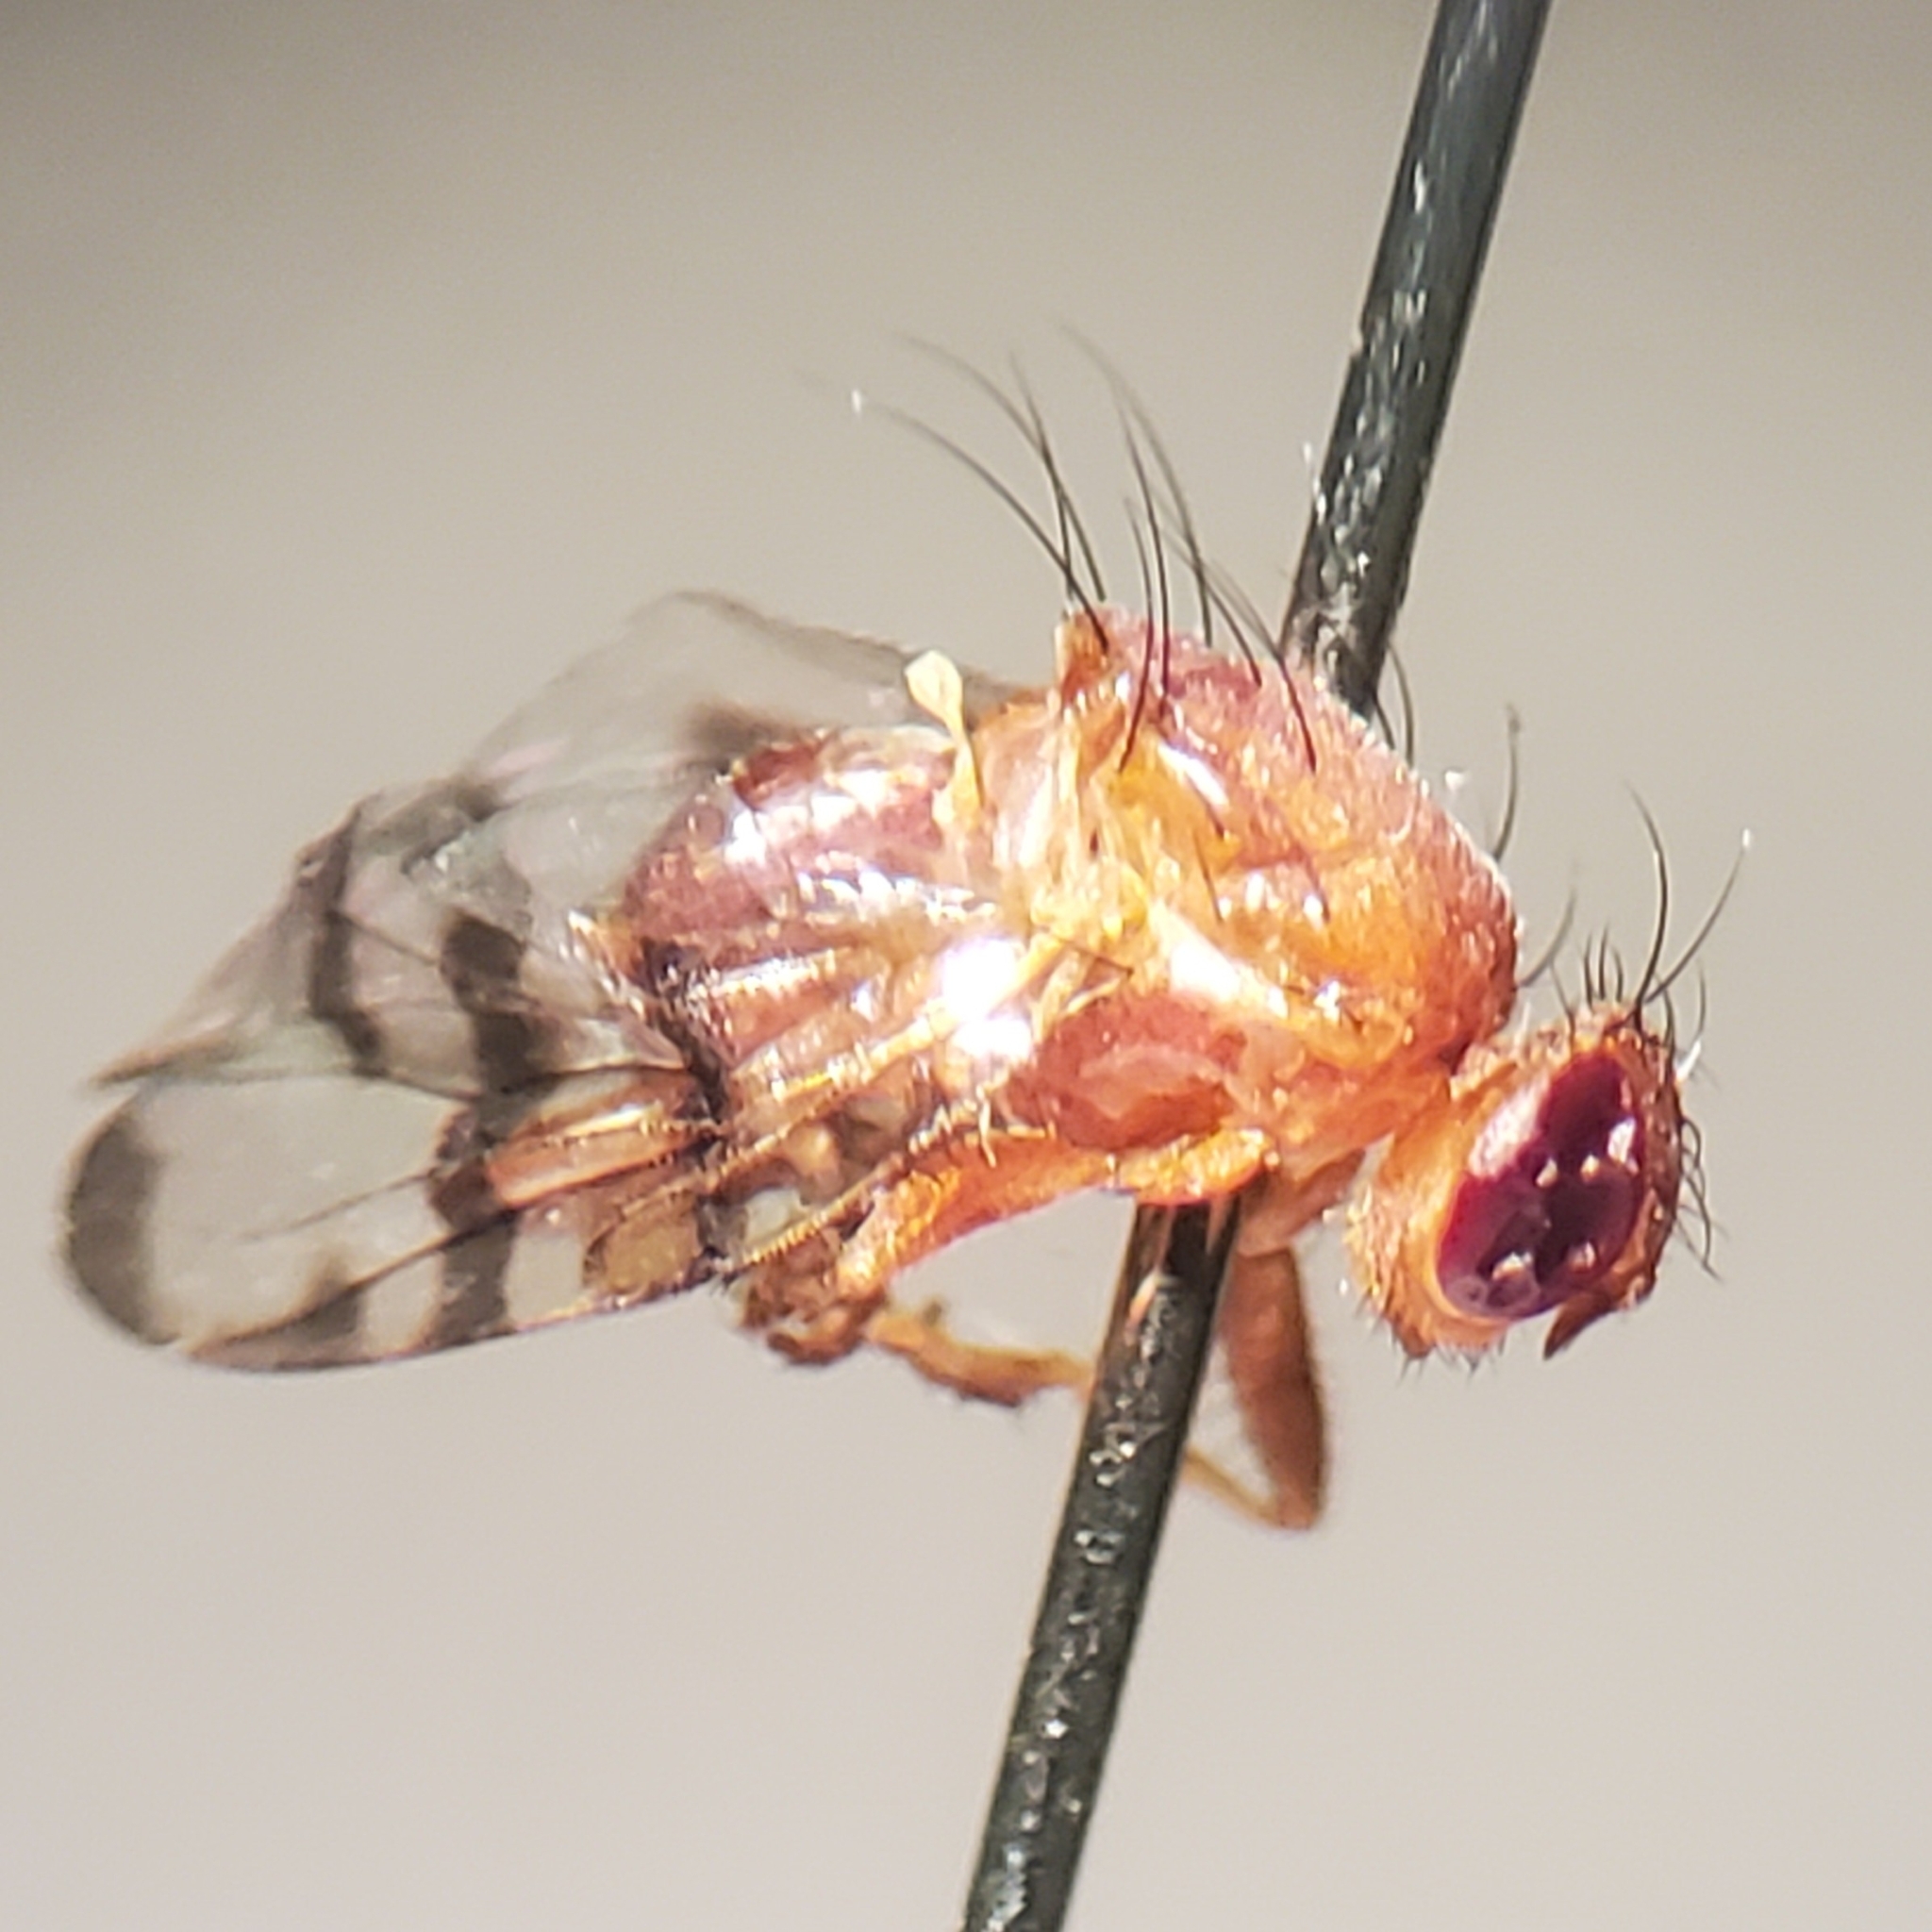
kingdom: Animalia
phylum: Arthropoda
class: Insecta
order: Diptera
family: Tephritidae
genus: Chetostoma
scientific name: Chetostoma californicum
